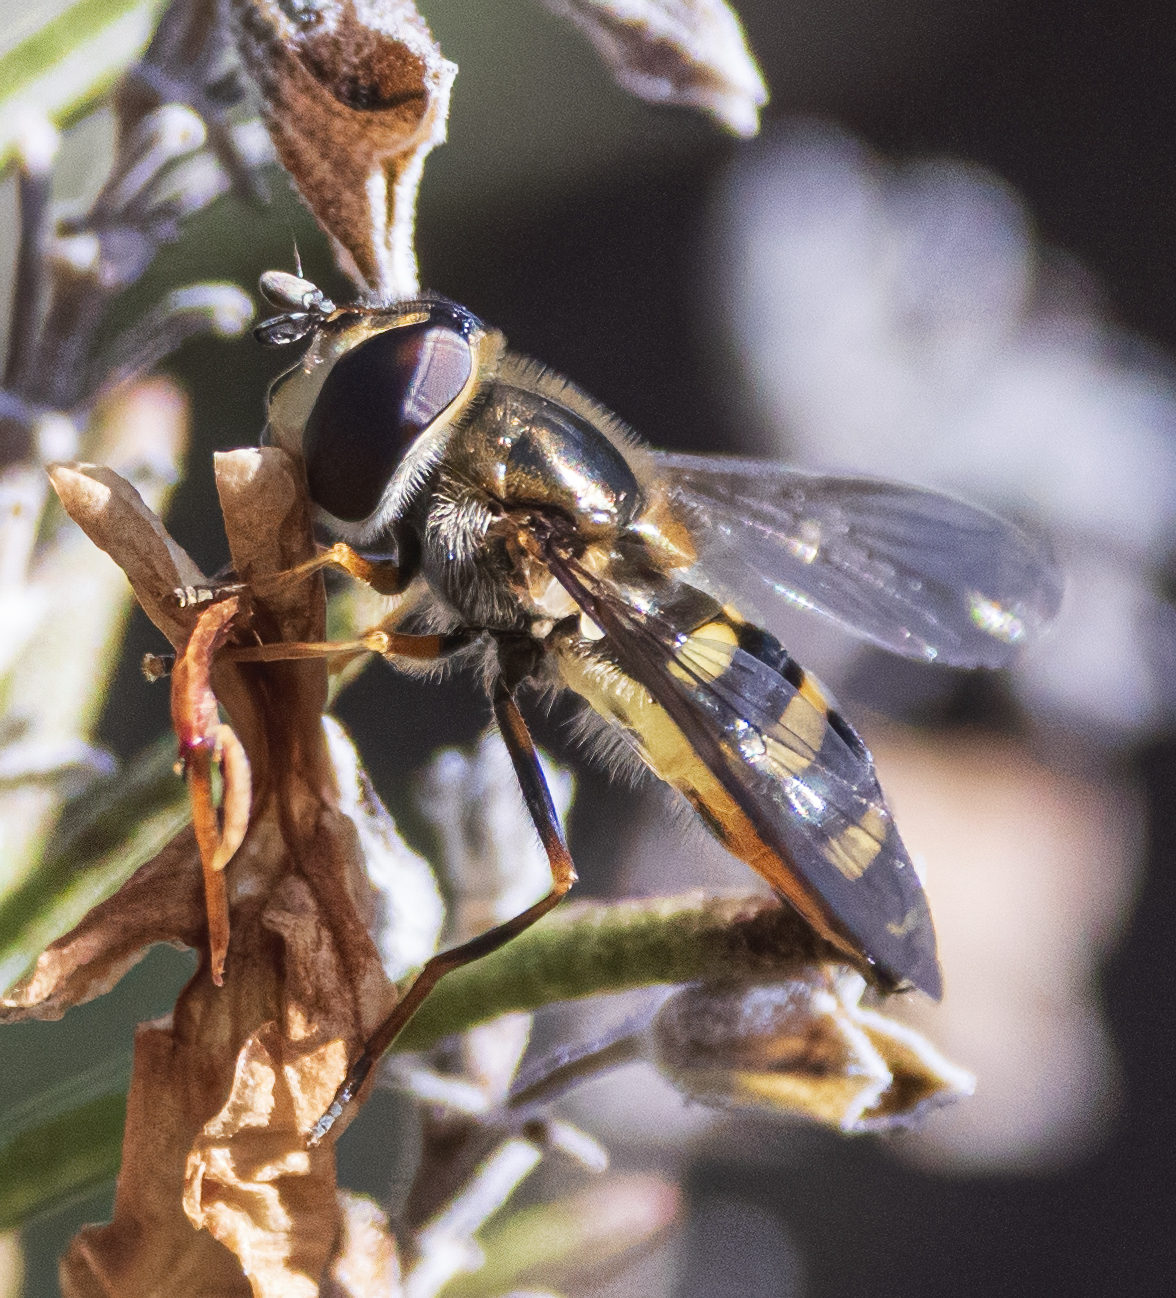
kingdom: Animalia
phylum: Arthropoda
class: Insecta
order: Diptera
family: Syrphidae
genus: Eupeodes
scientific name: Eupeodes
